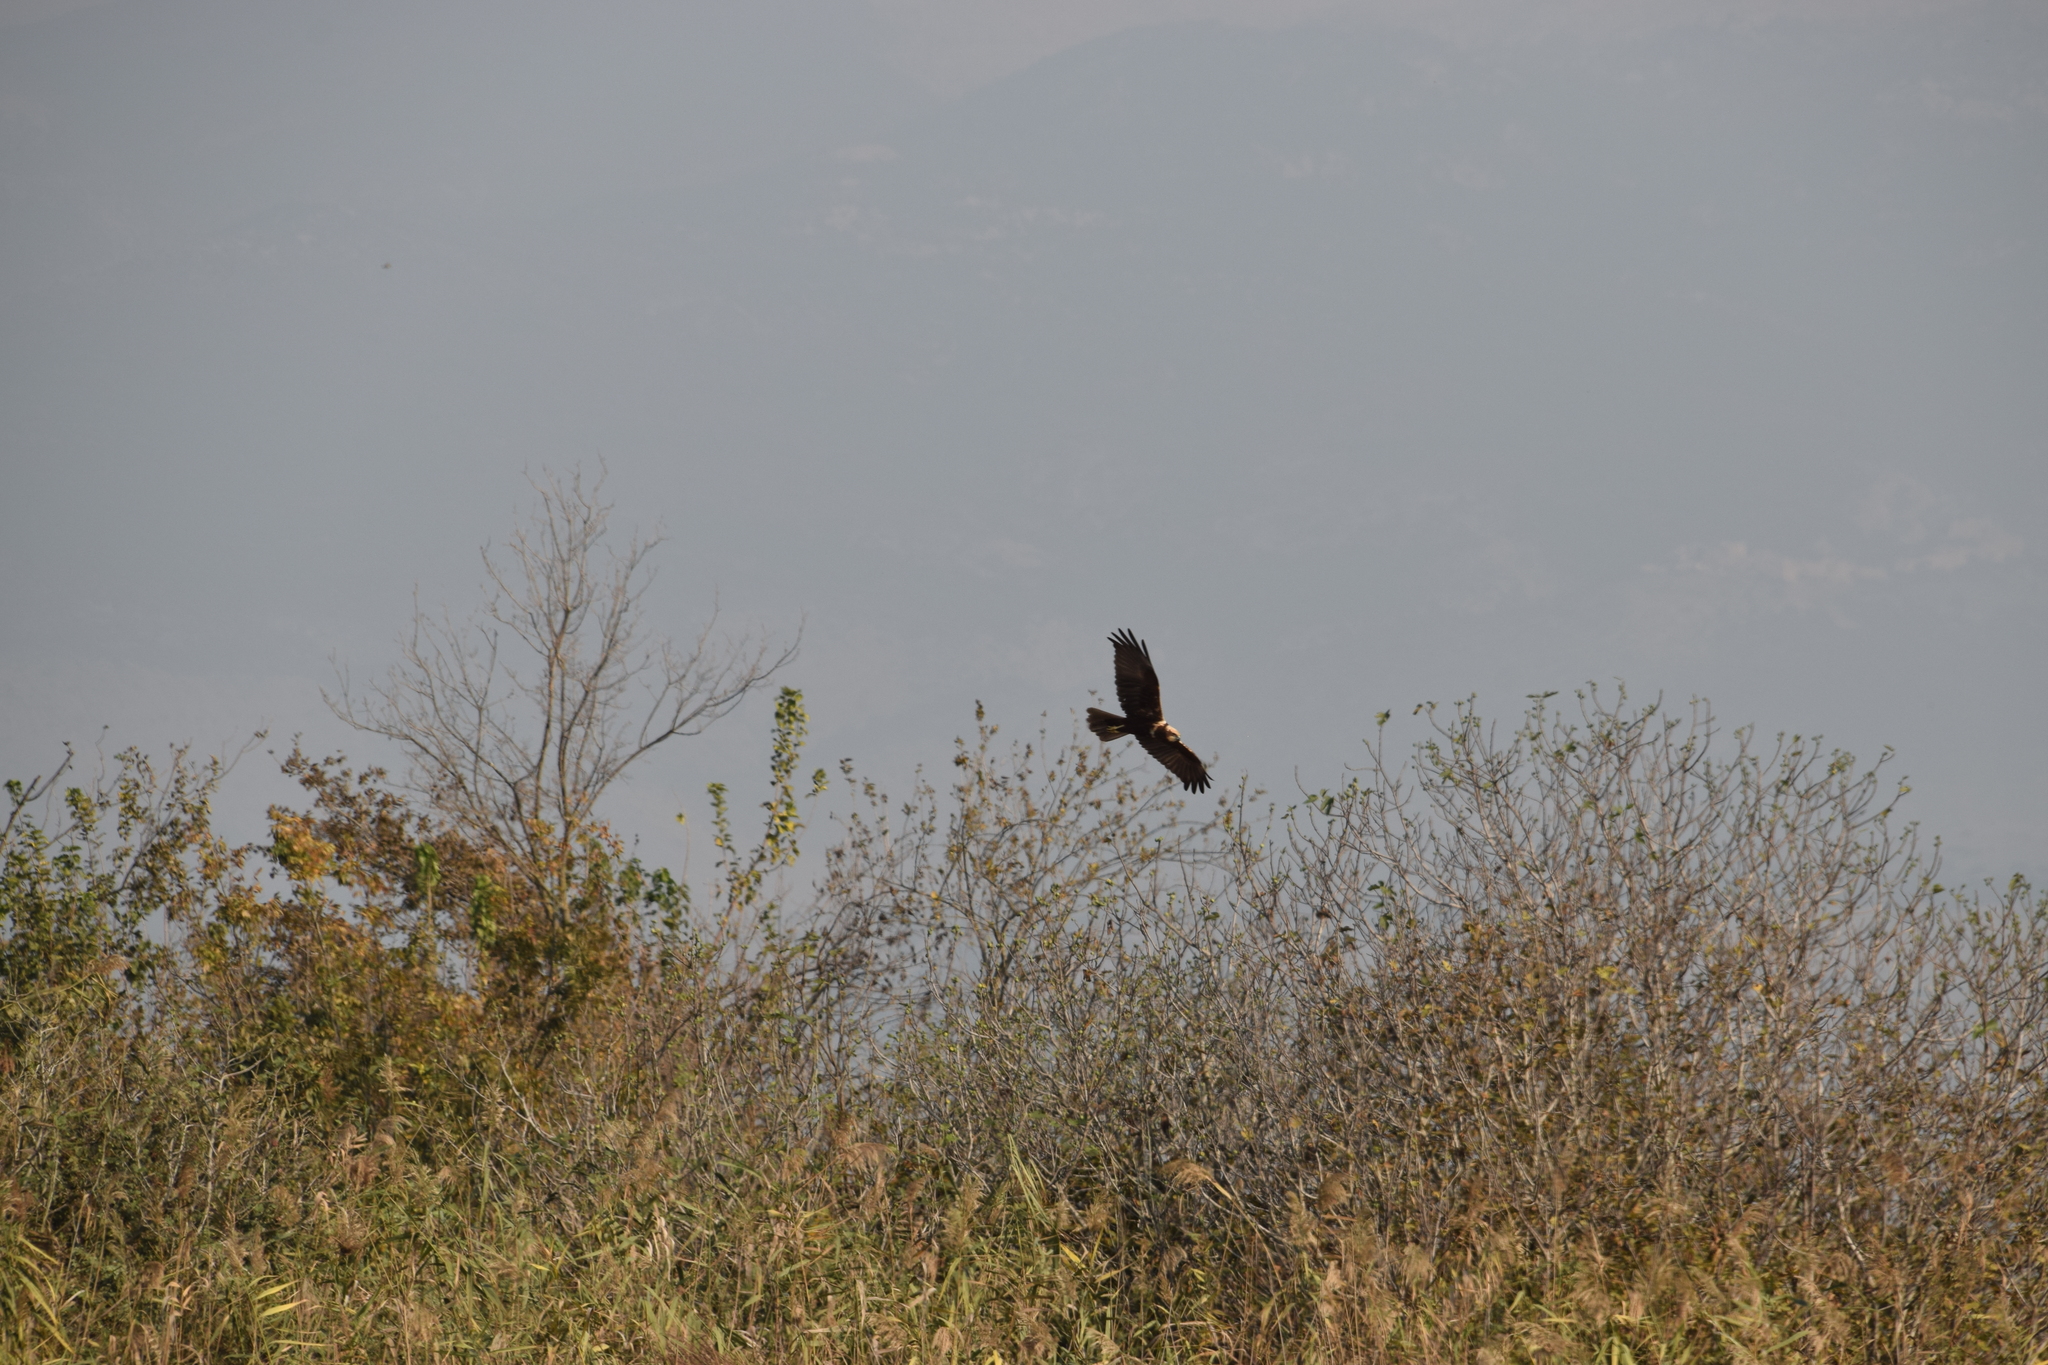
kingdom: Animalia
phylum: Chordata
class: Aves
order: Accipitriformes
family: Accipitridae
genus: Circus
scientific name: Circus aeruginosus
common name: Western marsh harrier
